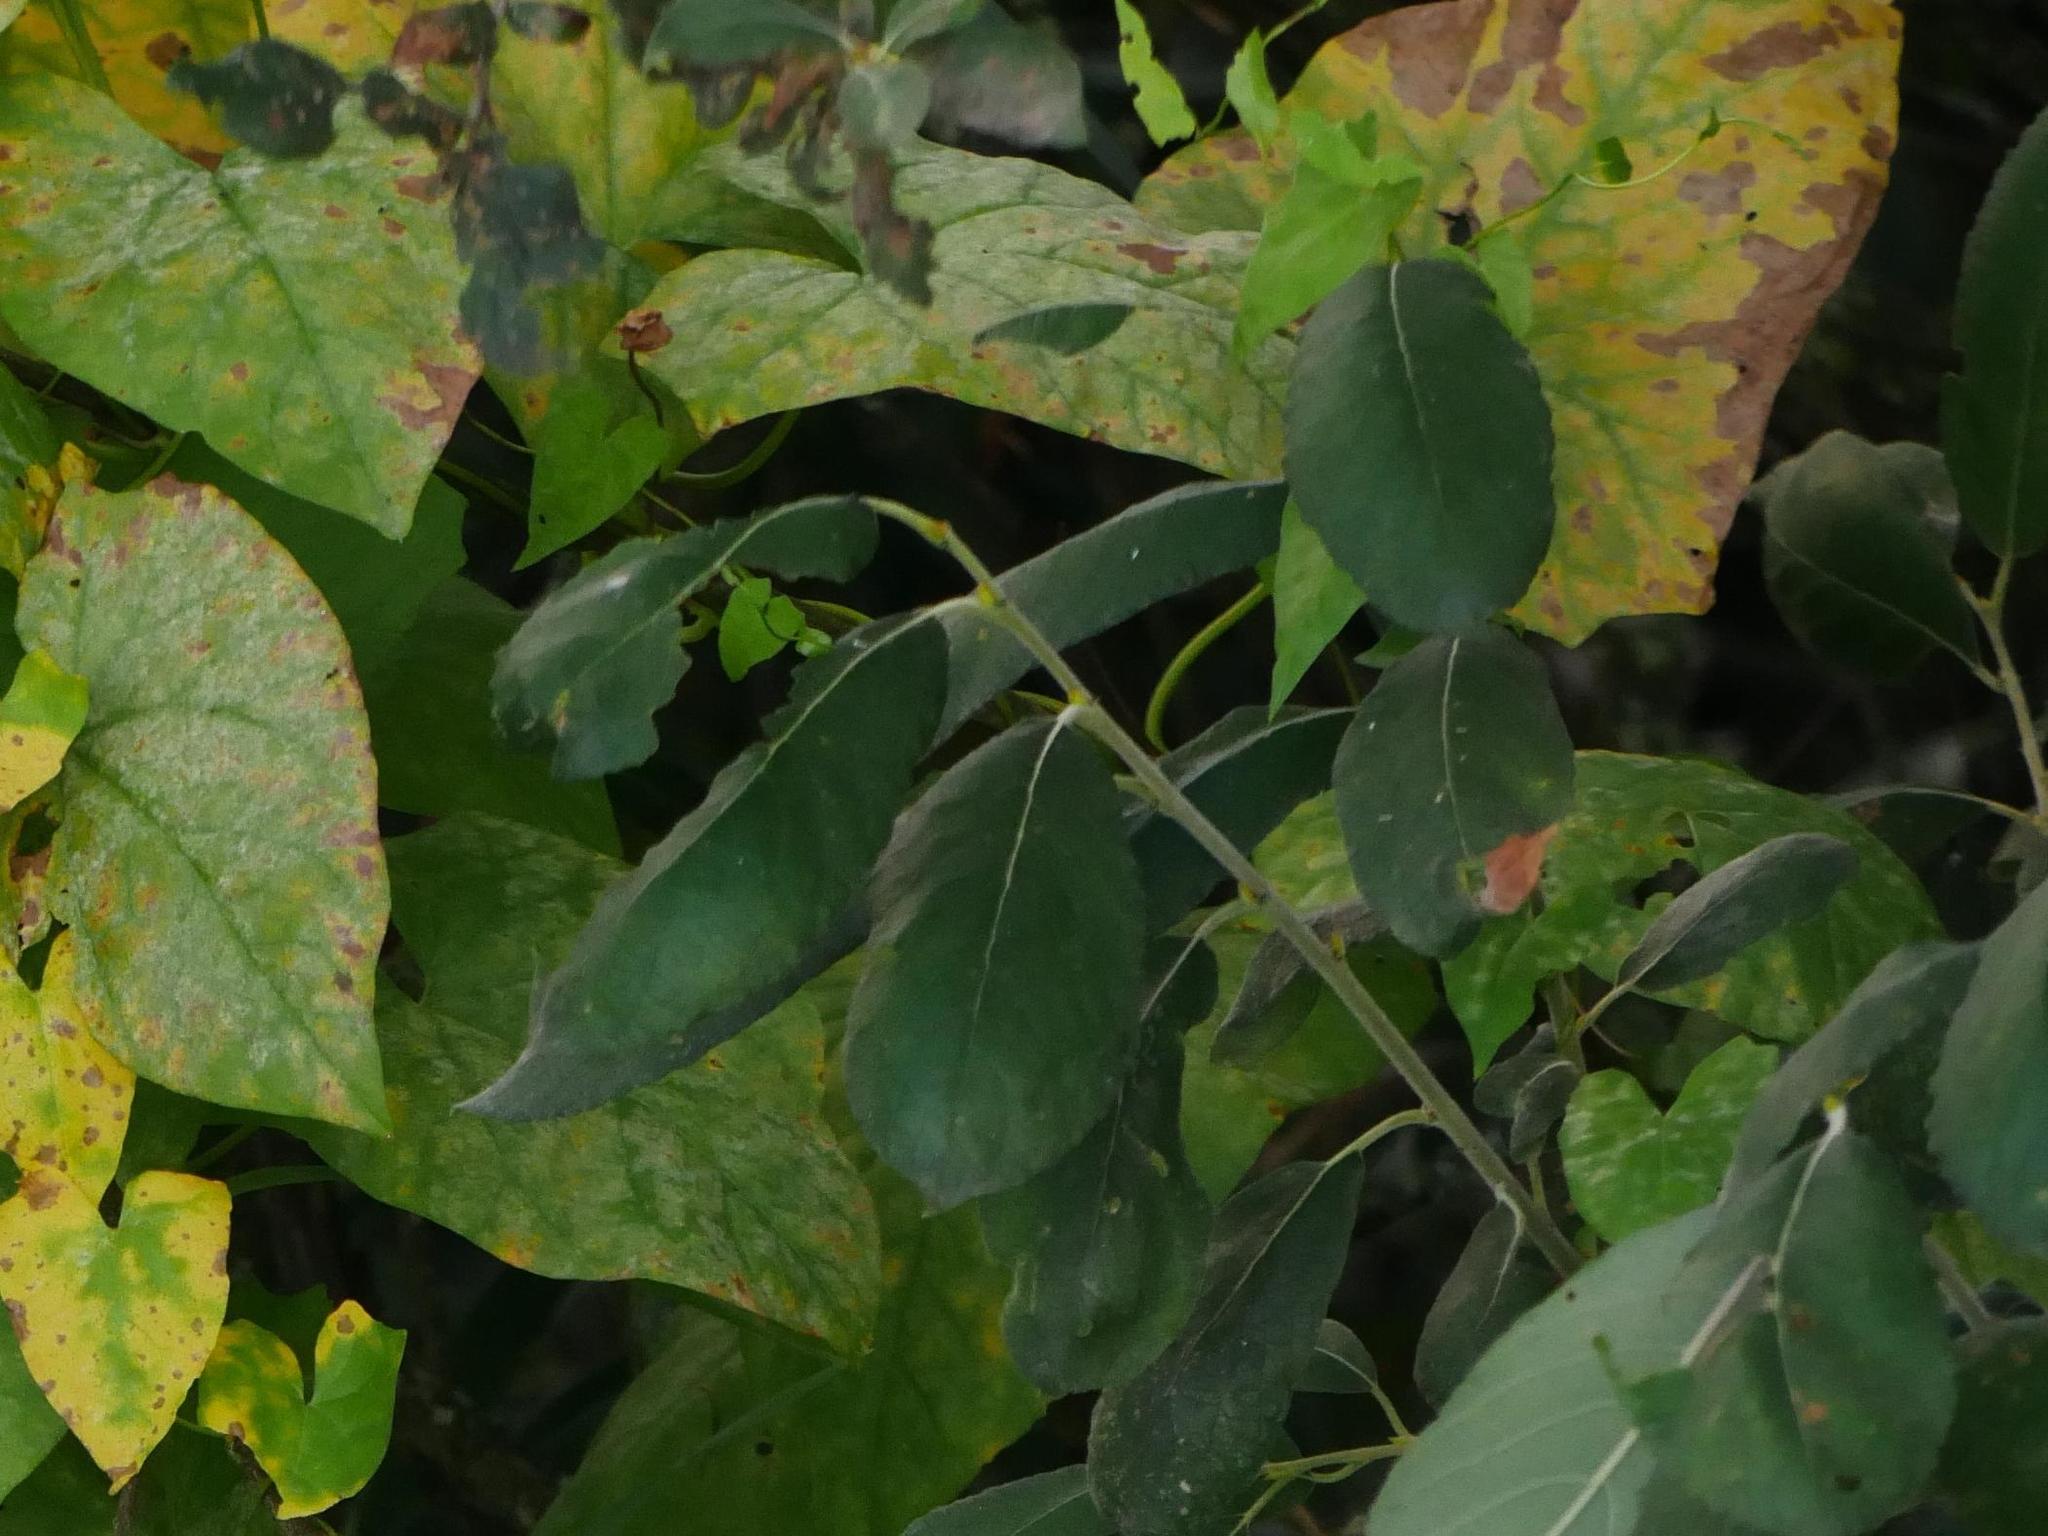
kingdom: Plantae
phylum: Tracheophyta
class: Magnoliopsida
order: Malpighiales
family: Salicaceae
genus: Salix
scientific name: Salix caprea
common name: Goat willow
